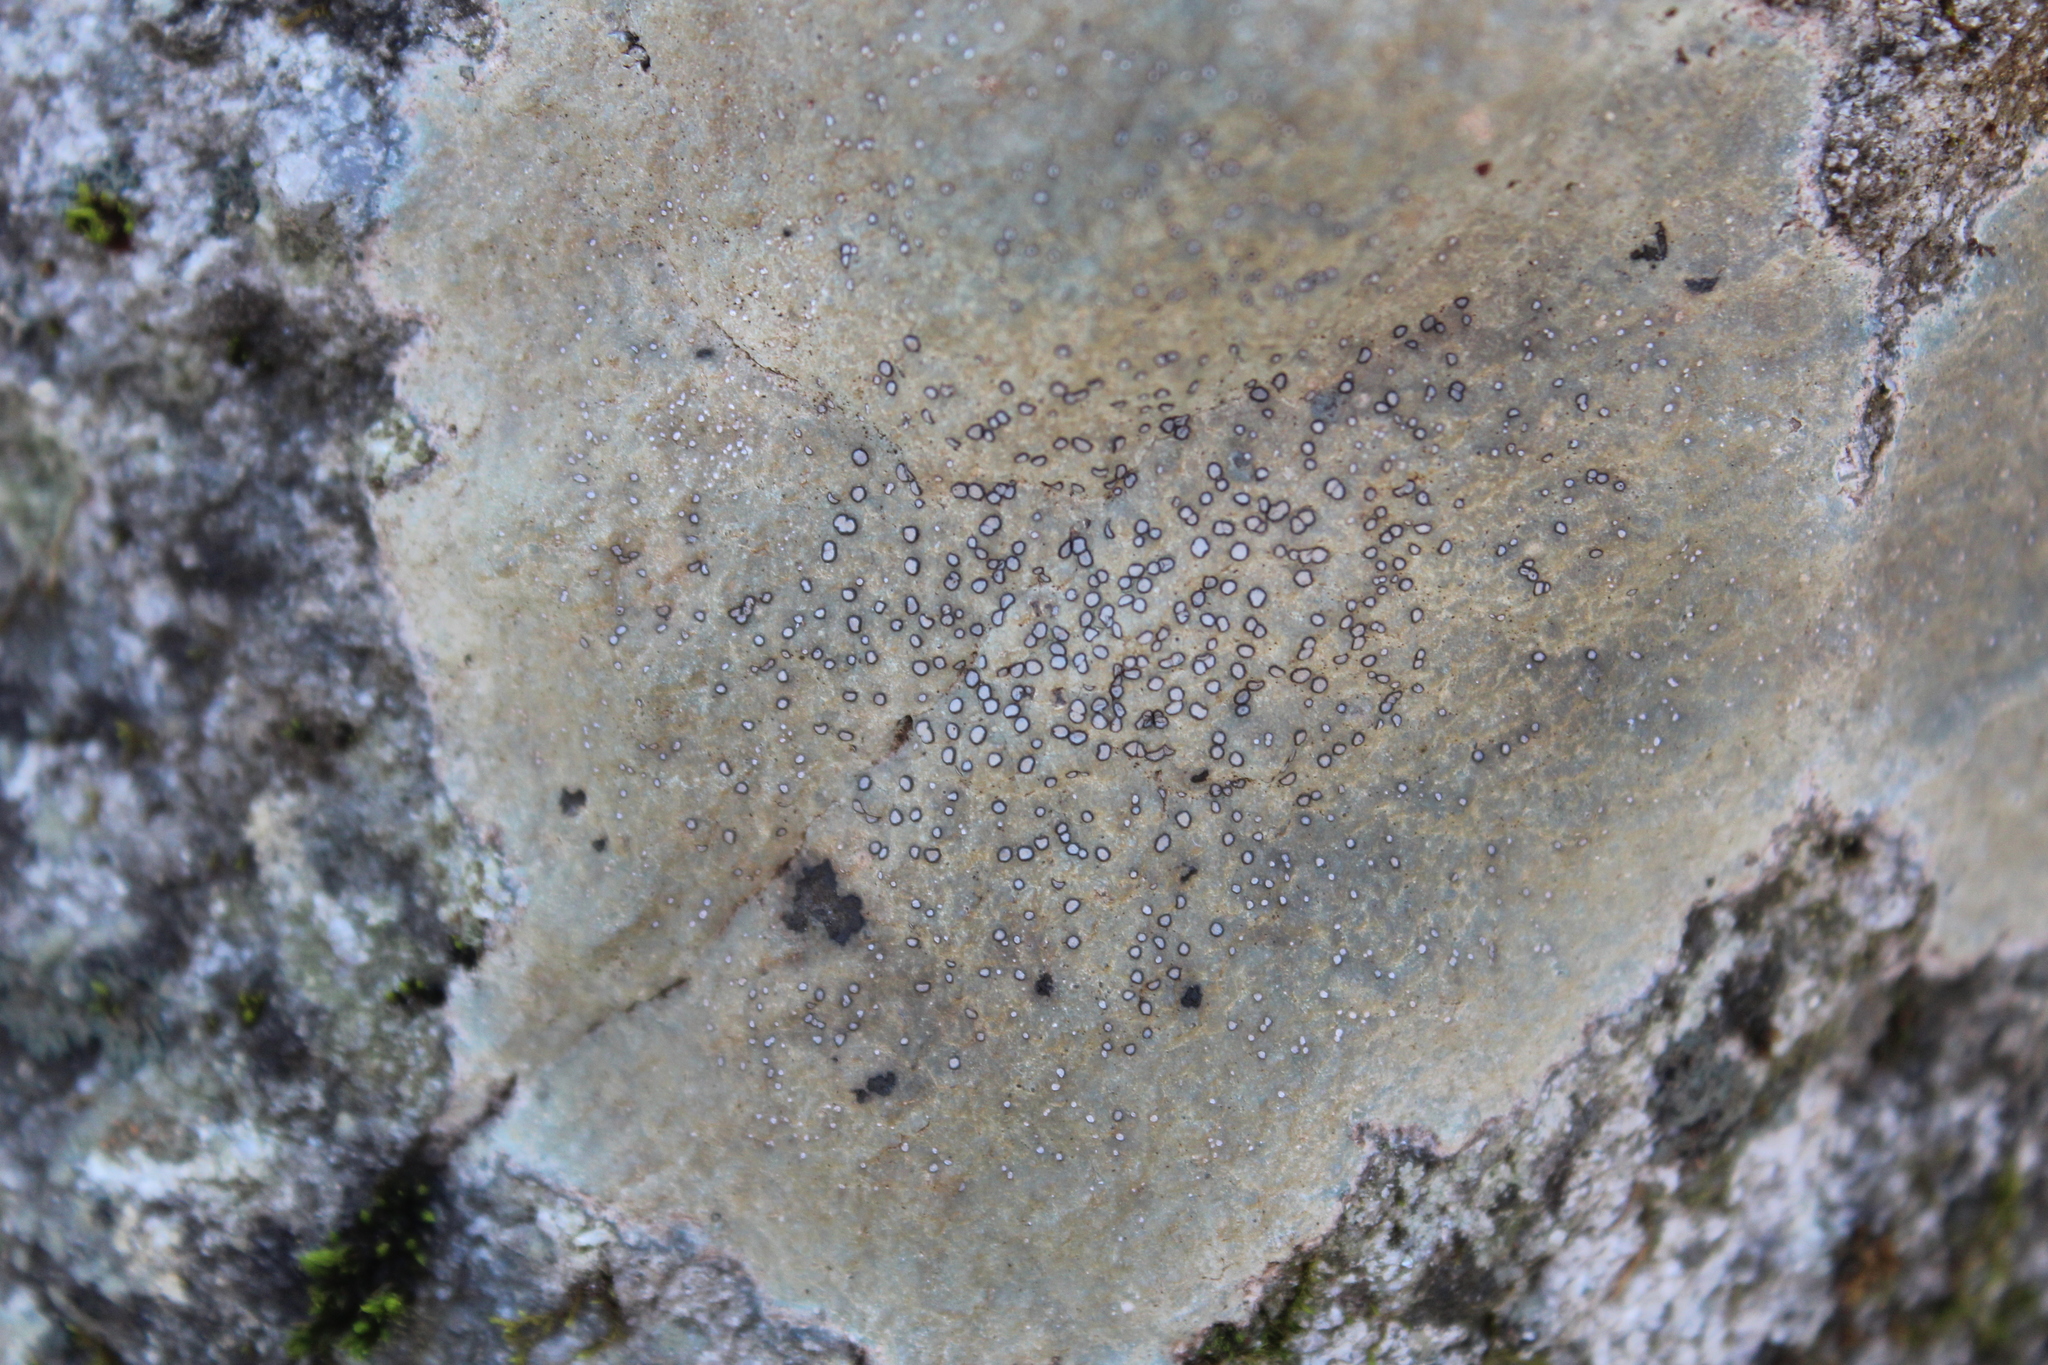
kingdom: Fungi
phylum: Ascomycota
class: Lecanoromycetes
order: Lecideales
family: Lecideaceae
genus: Porpidia
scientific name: Porpidia albocaerulescens
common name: Smokey-eyed boulder lichen
